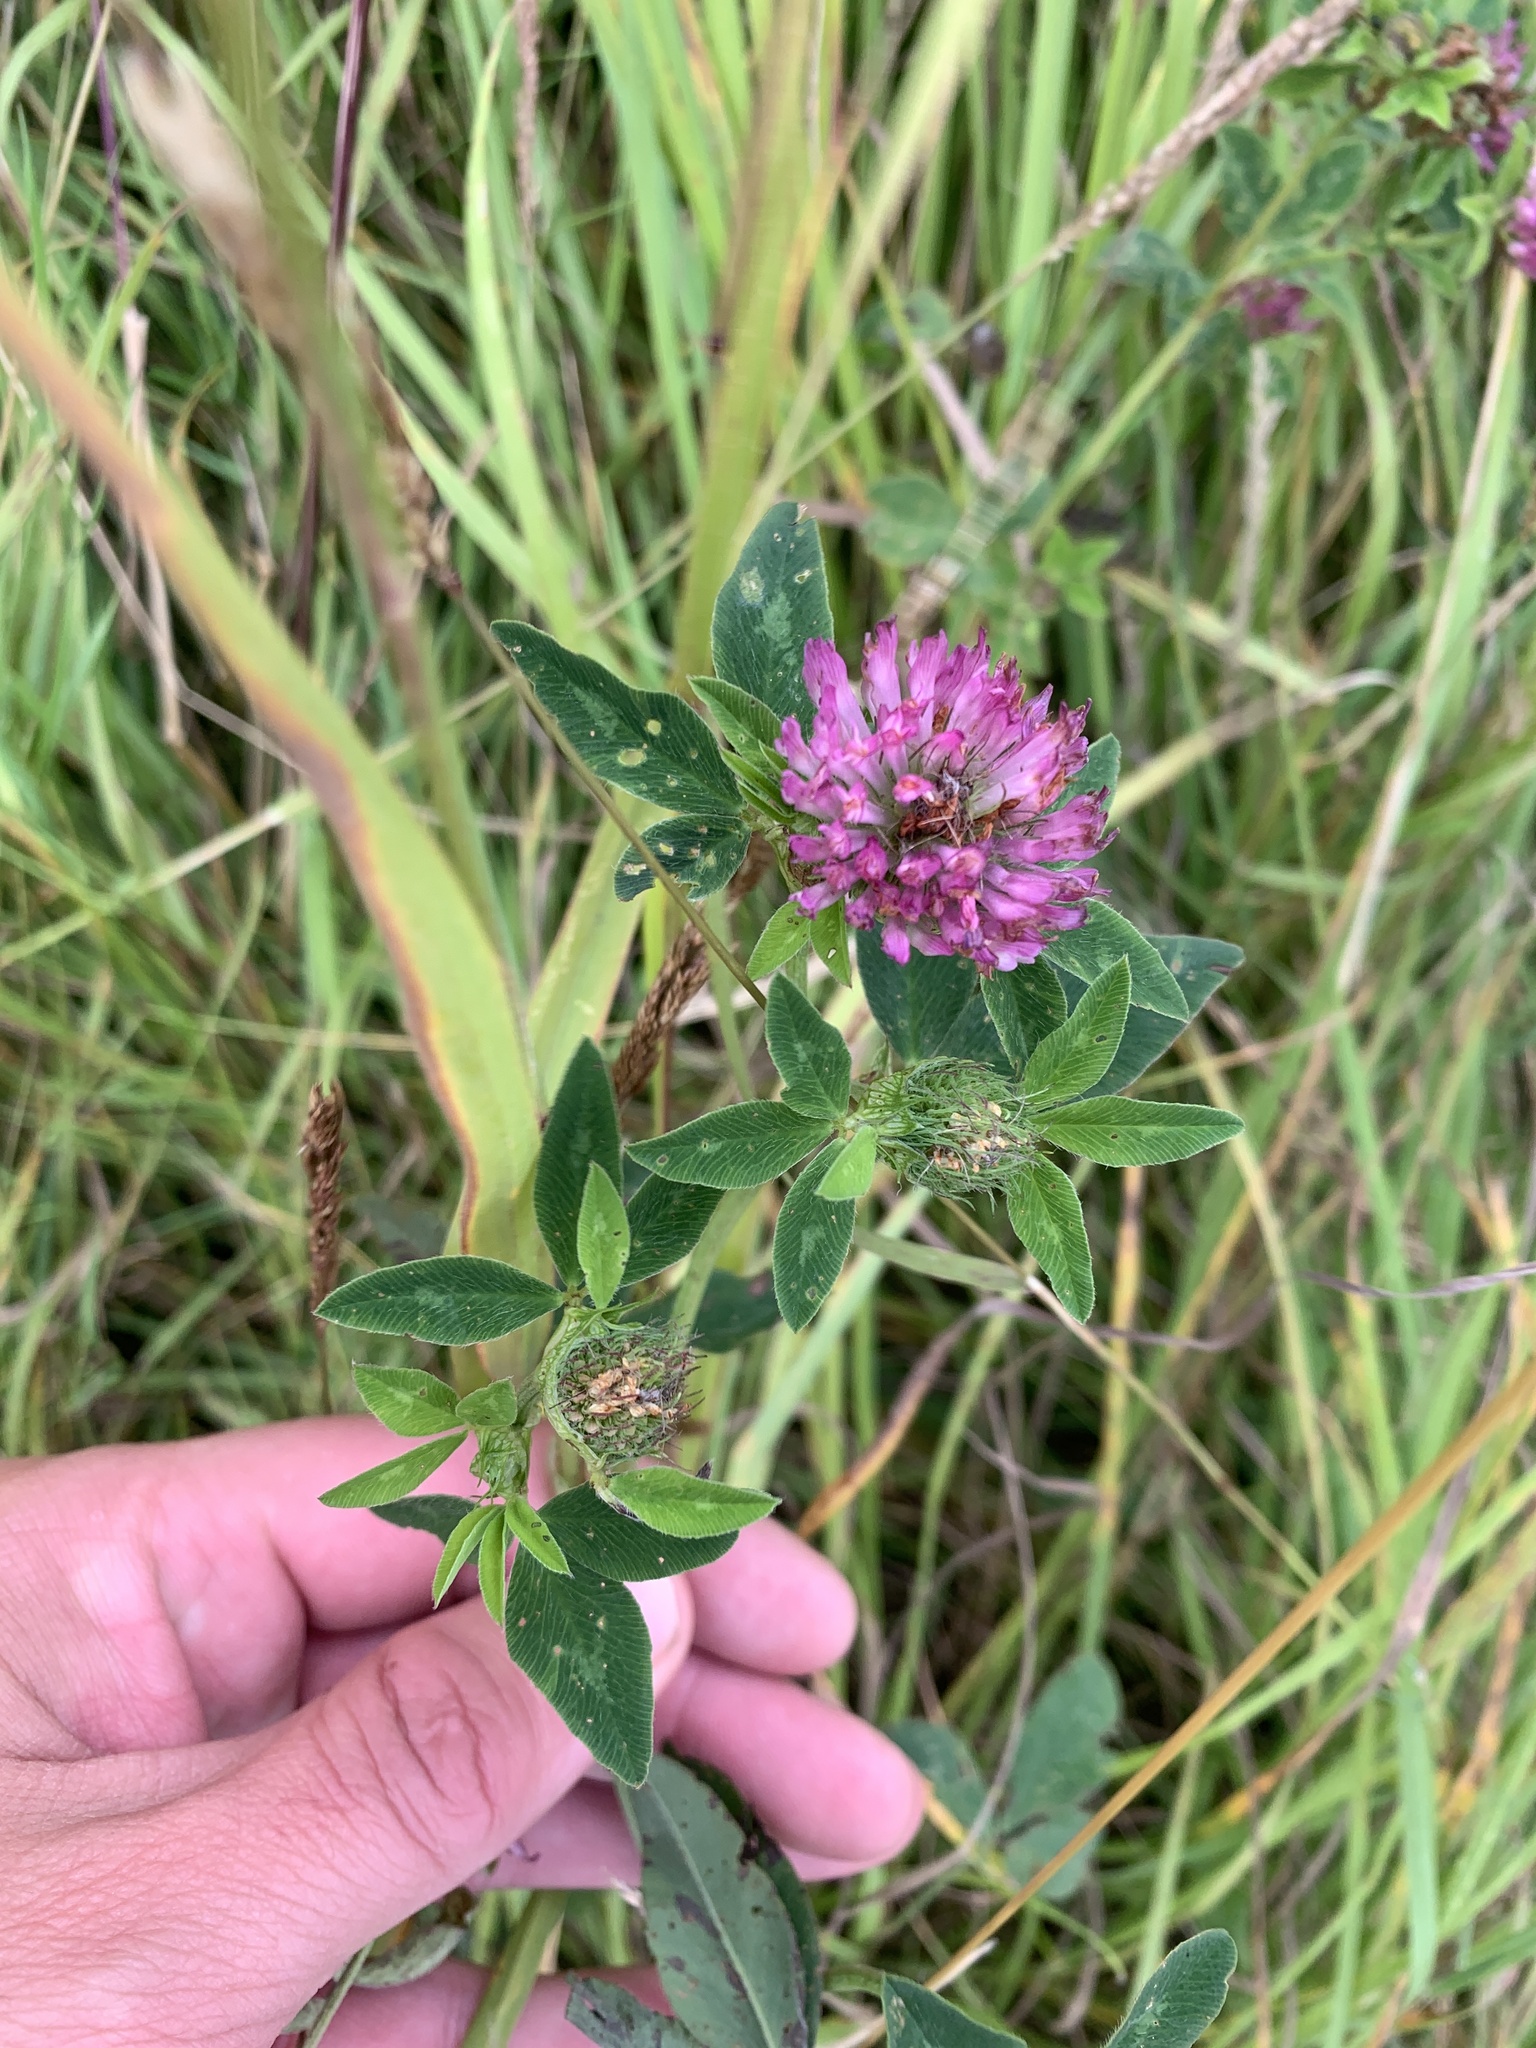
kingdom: Plantae
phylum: Tracheophyta
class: Magnoliopsida
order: Fabales
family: Fabaceae
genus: Trifolium
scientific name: Trifolium pratense
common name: Red clover
